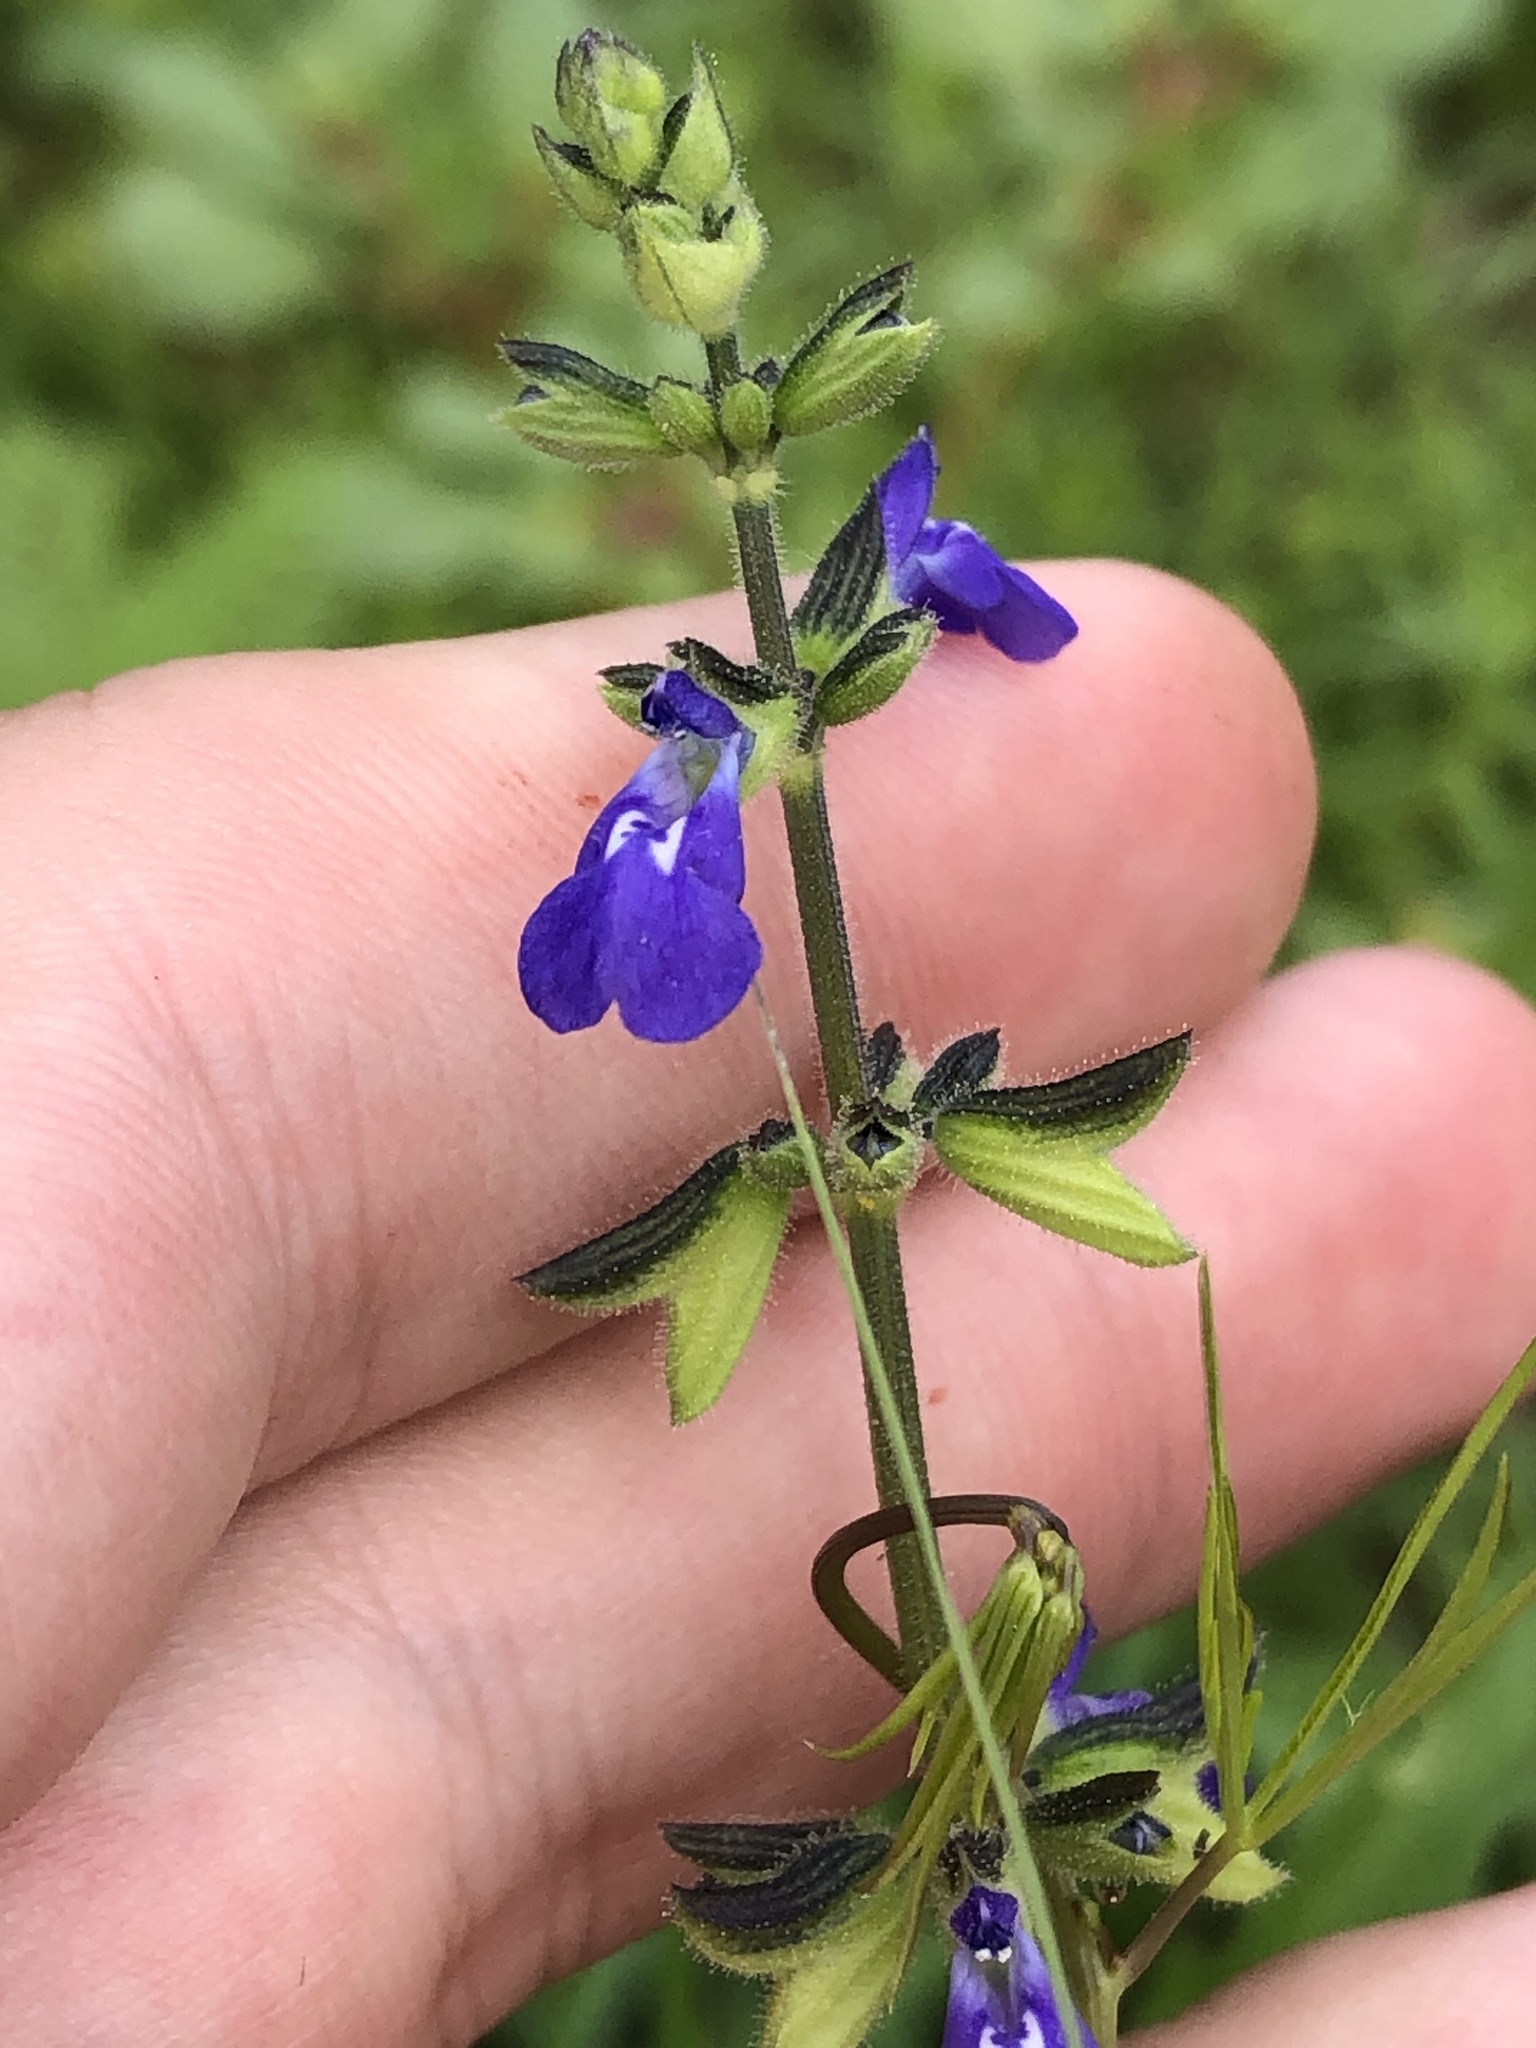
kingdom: Plantae
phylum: Tracheophyta
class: Magnoliopsida
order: Lamiales
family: Lamiaceae
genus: Salvia
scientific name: Salvia subincisa
